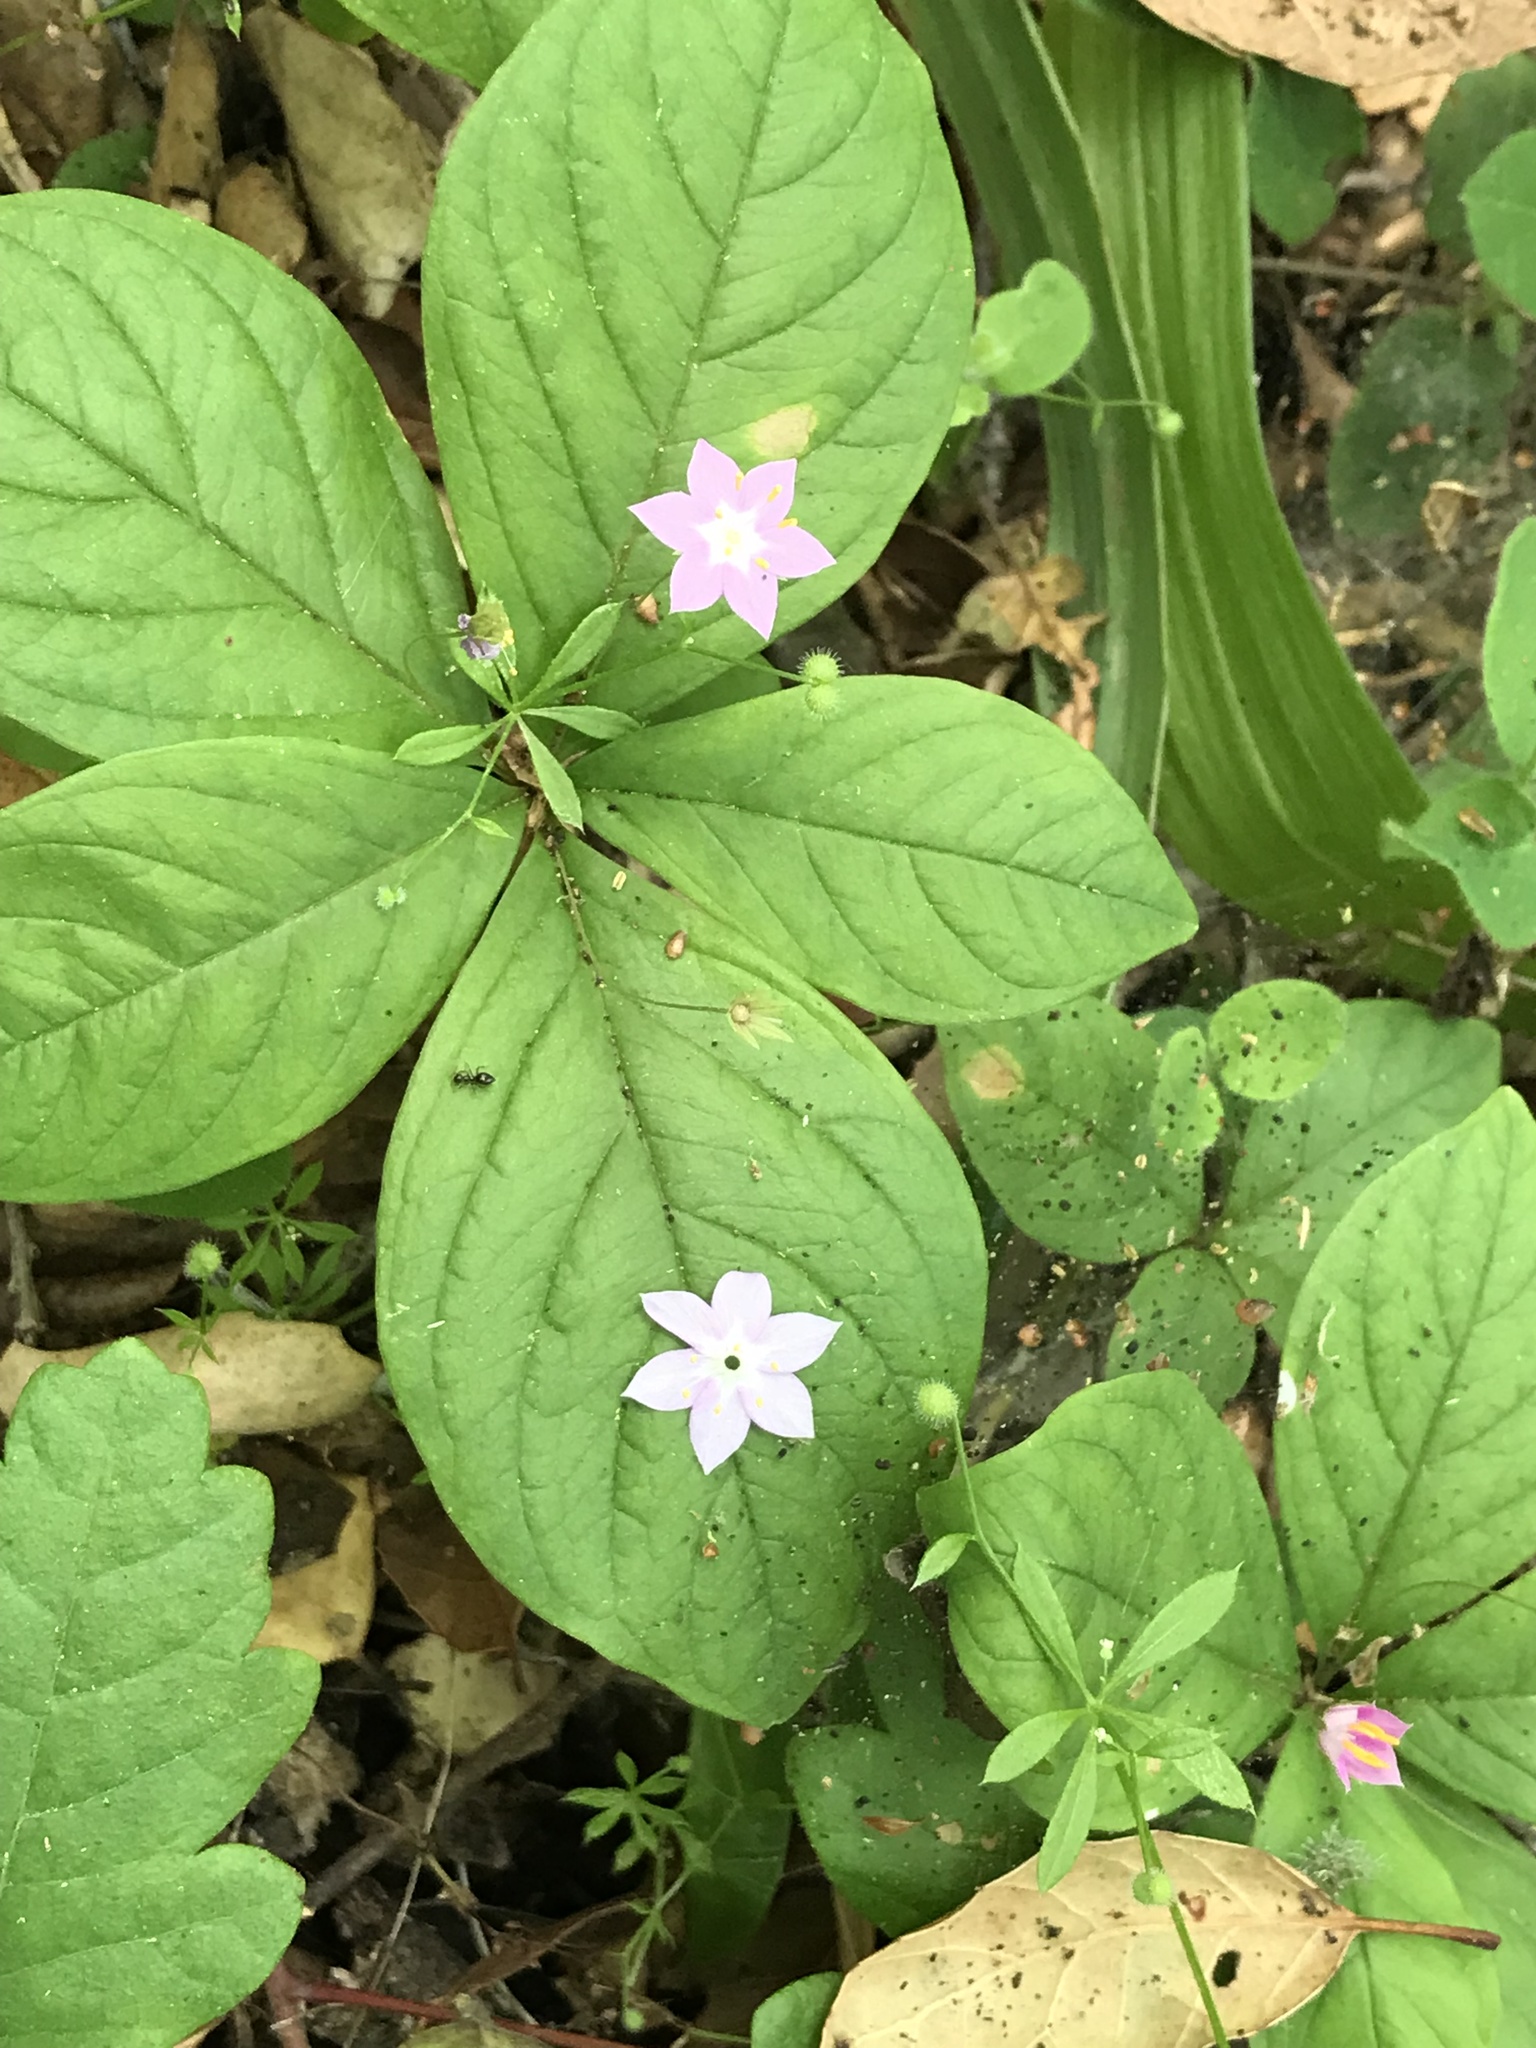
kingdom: Plantae
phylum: Tracheophyta
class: Magnoliopsida
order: Ericales
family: Primulaceae
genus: Lysimachia
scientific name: Lysimachia latifolia
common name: Pacific starflower
